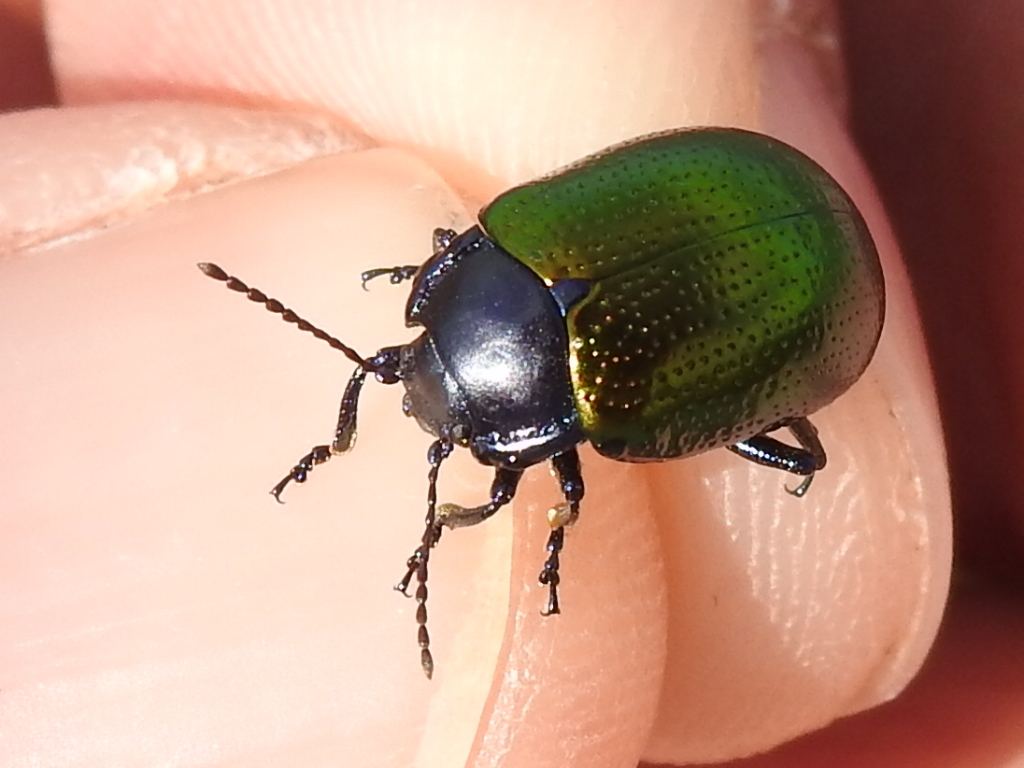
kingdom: Animalia
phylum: Arthropoda
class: Insecta
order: Coleoptera
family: Chrysomelidae
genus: Chrysolina
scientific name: Chrysolina auripennis
